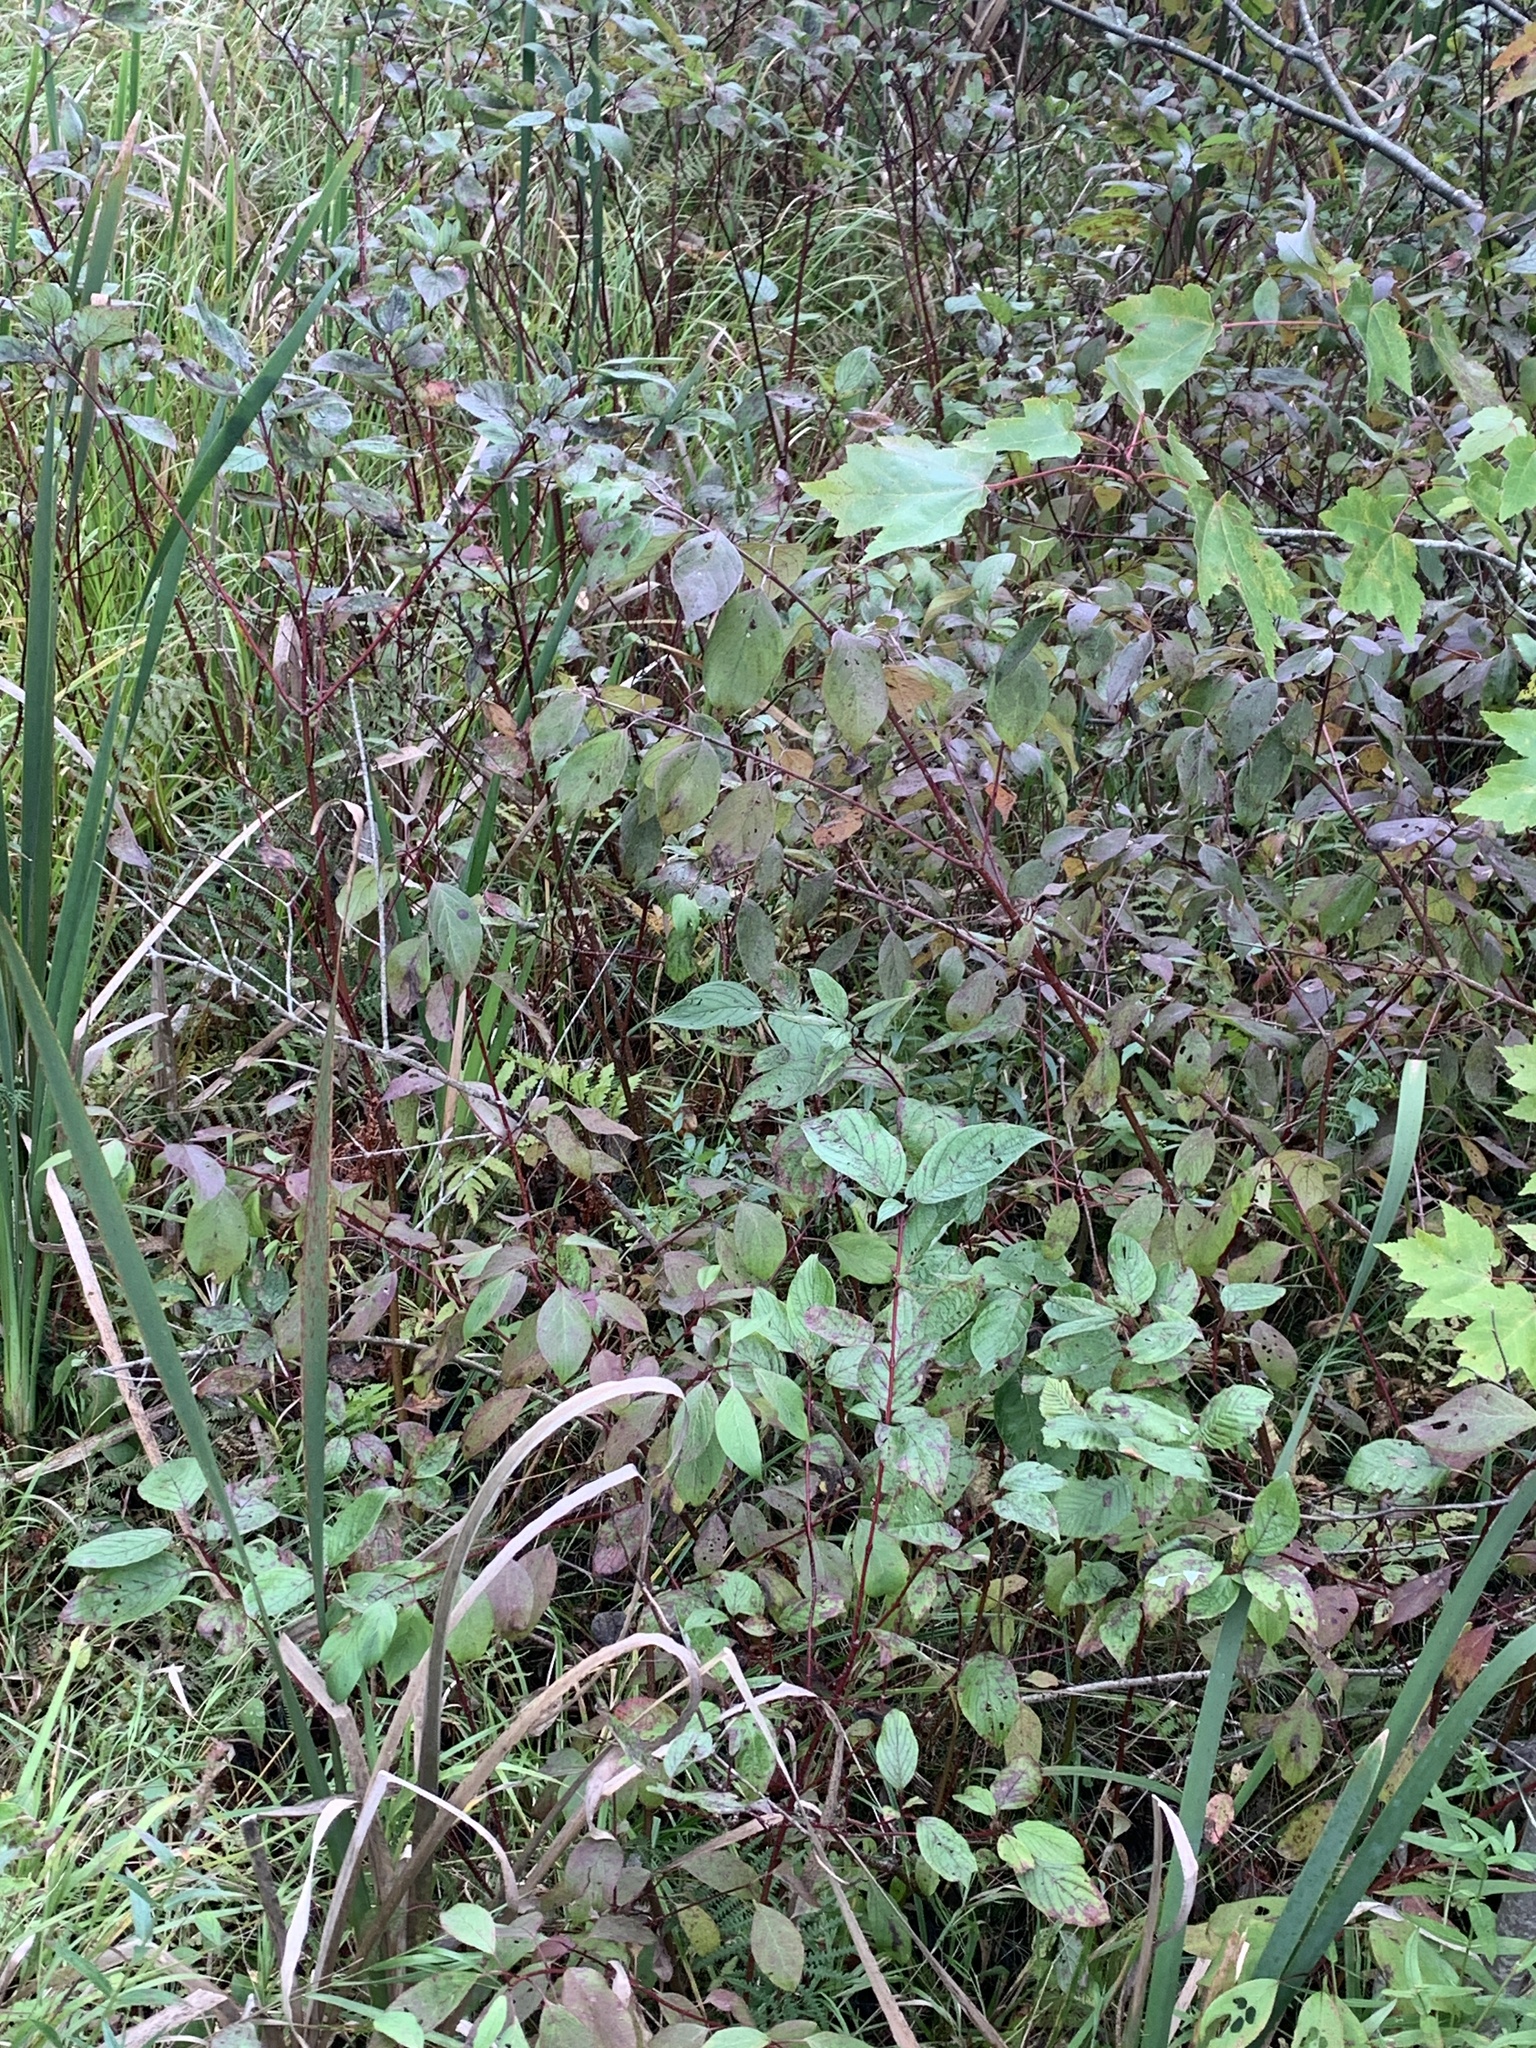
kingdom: Plantae
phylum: Tracheophyta
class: Magnoliopsida
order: Cornales
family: Cornaceae
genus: Cornus
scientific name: Cornus sericea
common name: Red-osier dogwood
